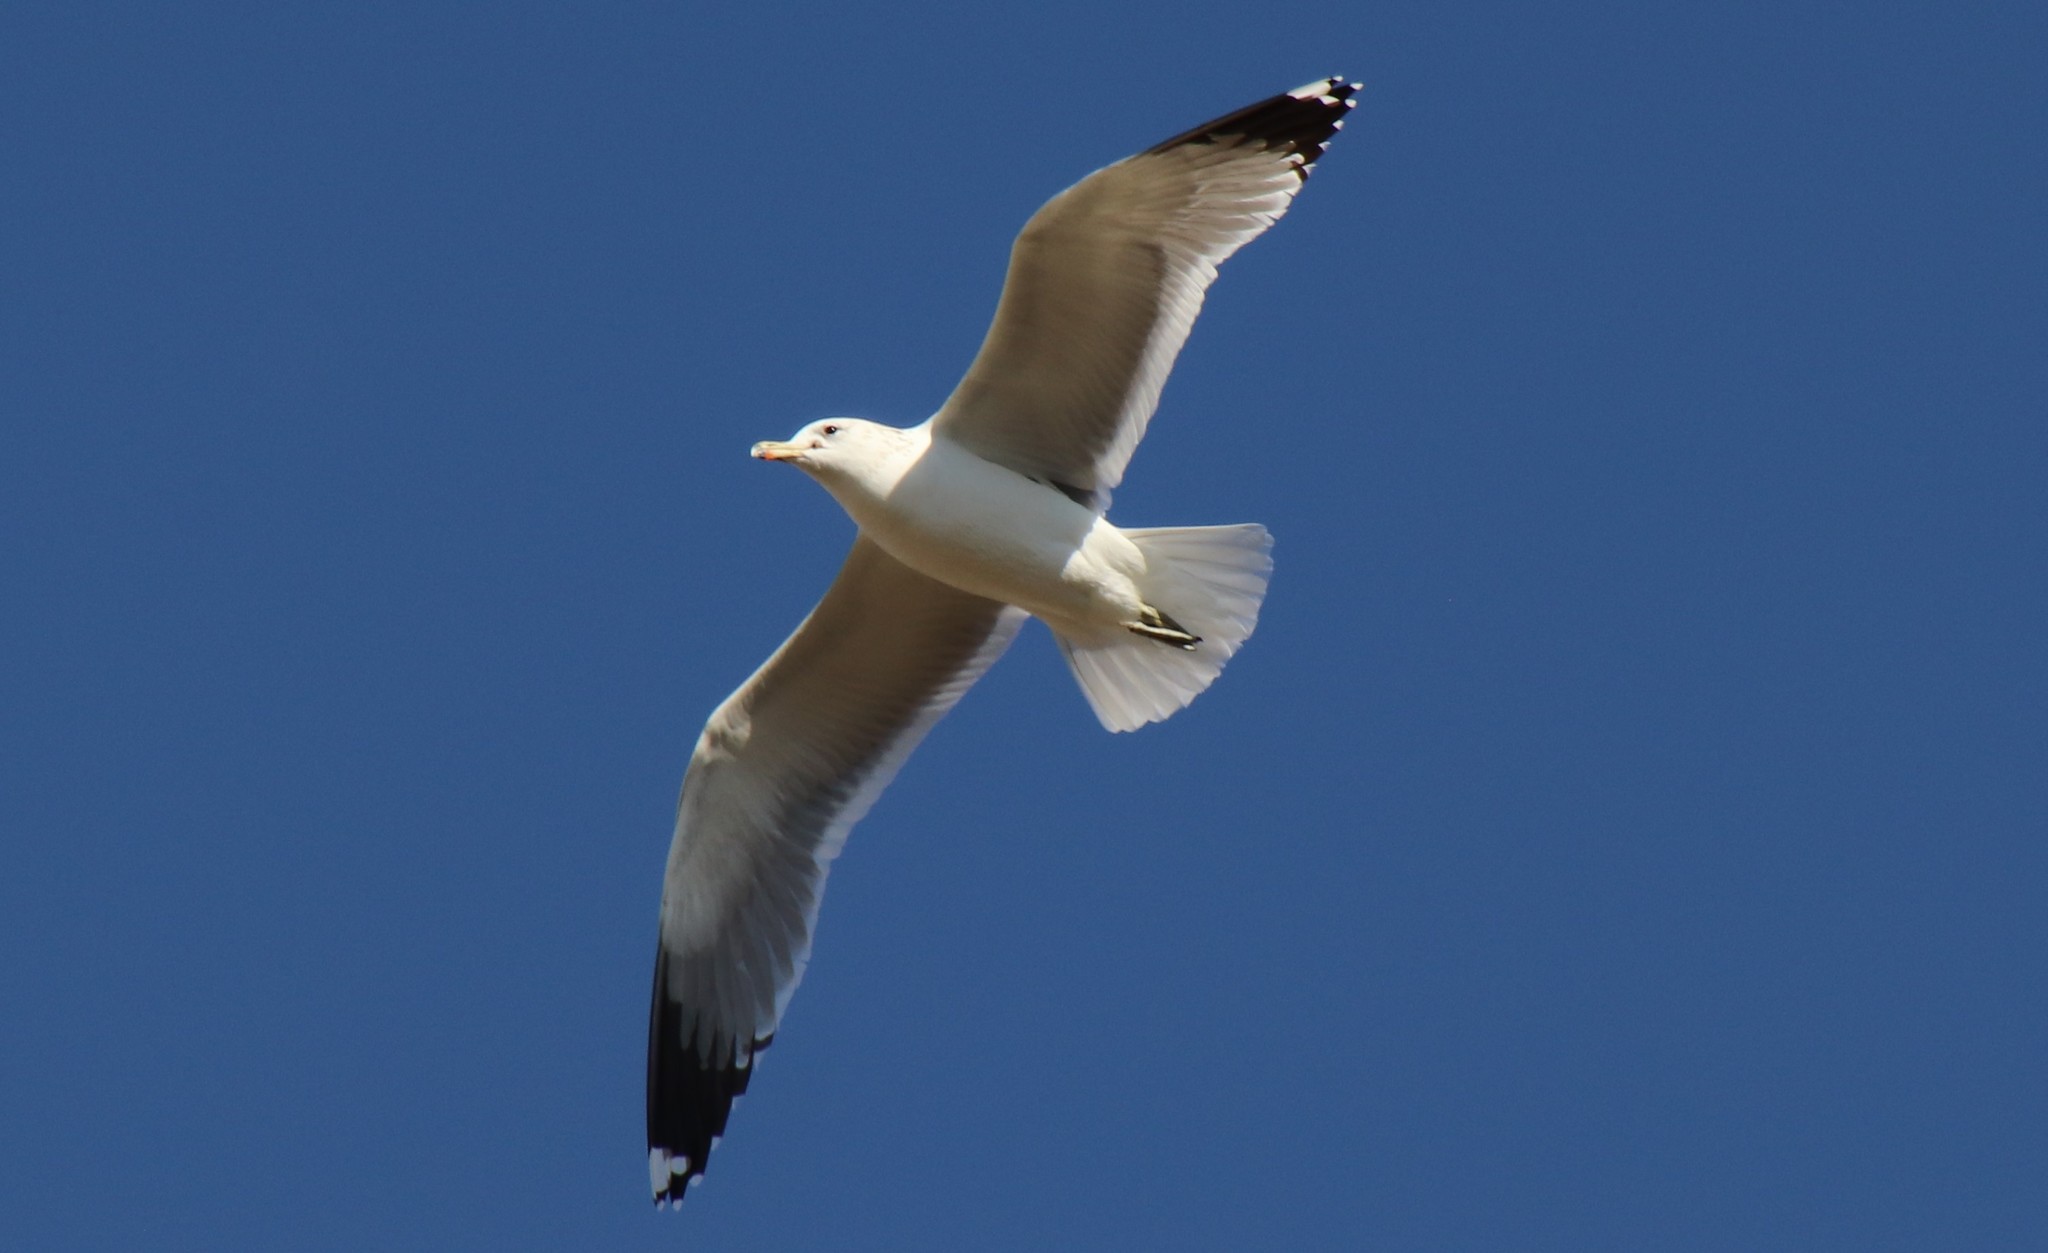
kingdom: Animalia
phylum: Chordata
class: Aves
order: Charadriiformes
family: Laridae
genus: Larus
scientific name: Larus californicus
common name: California gull
